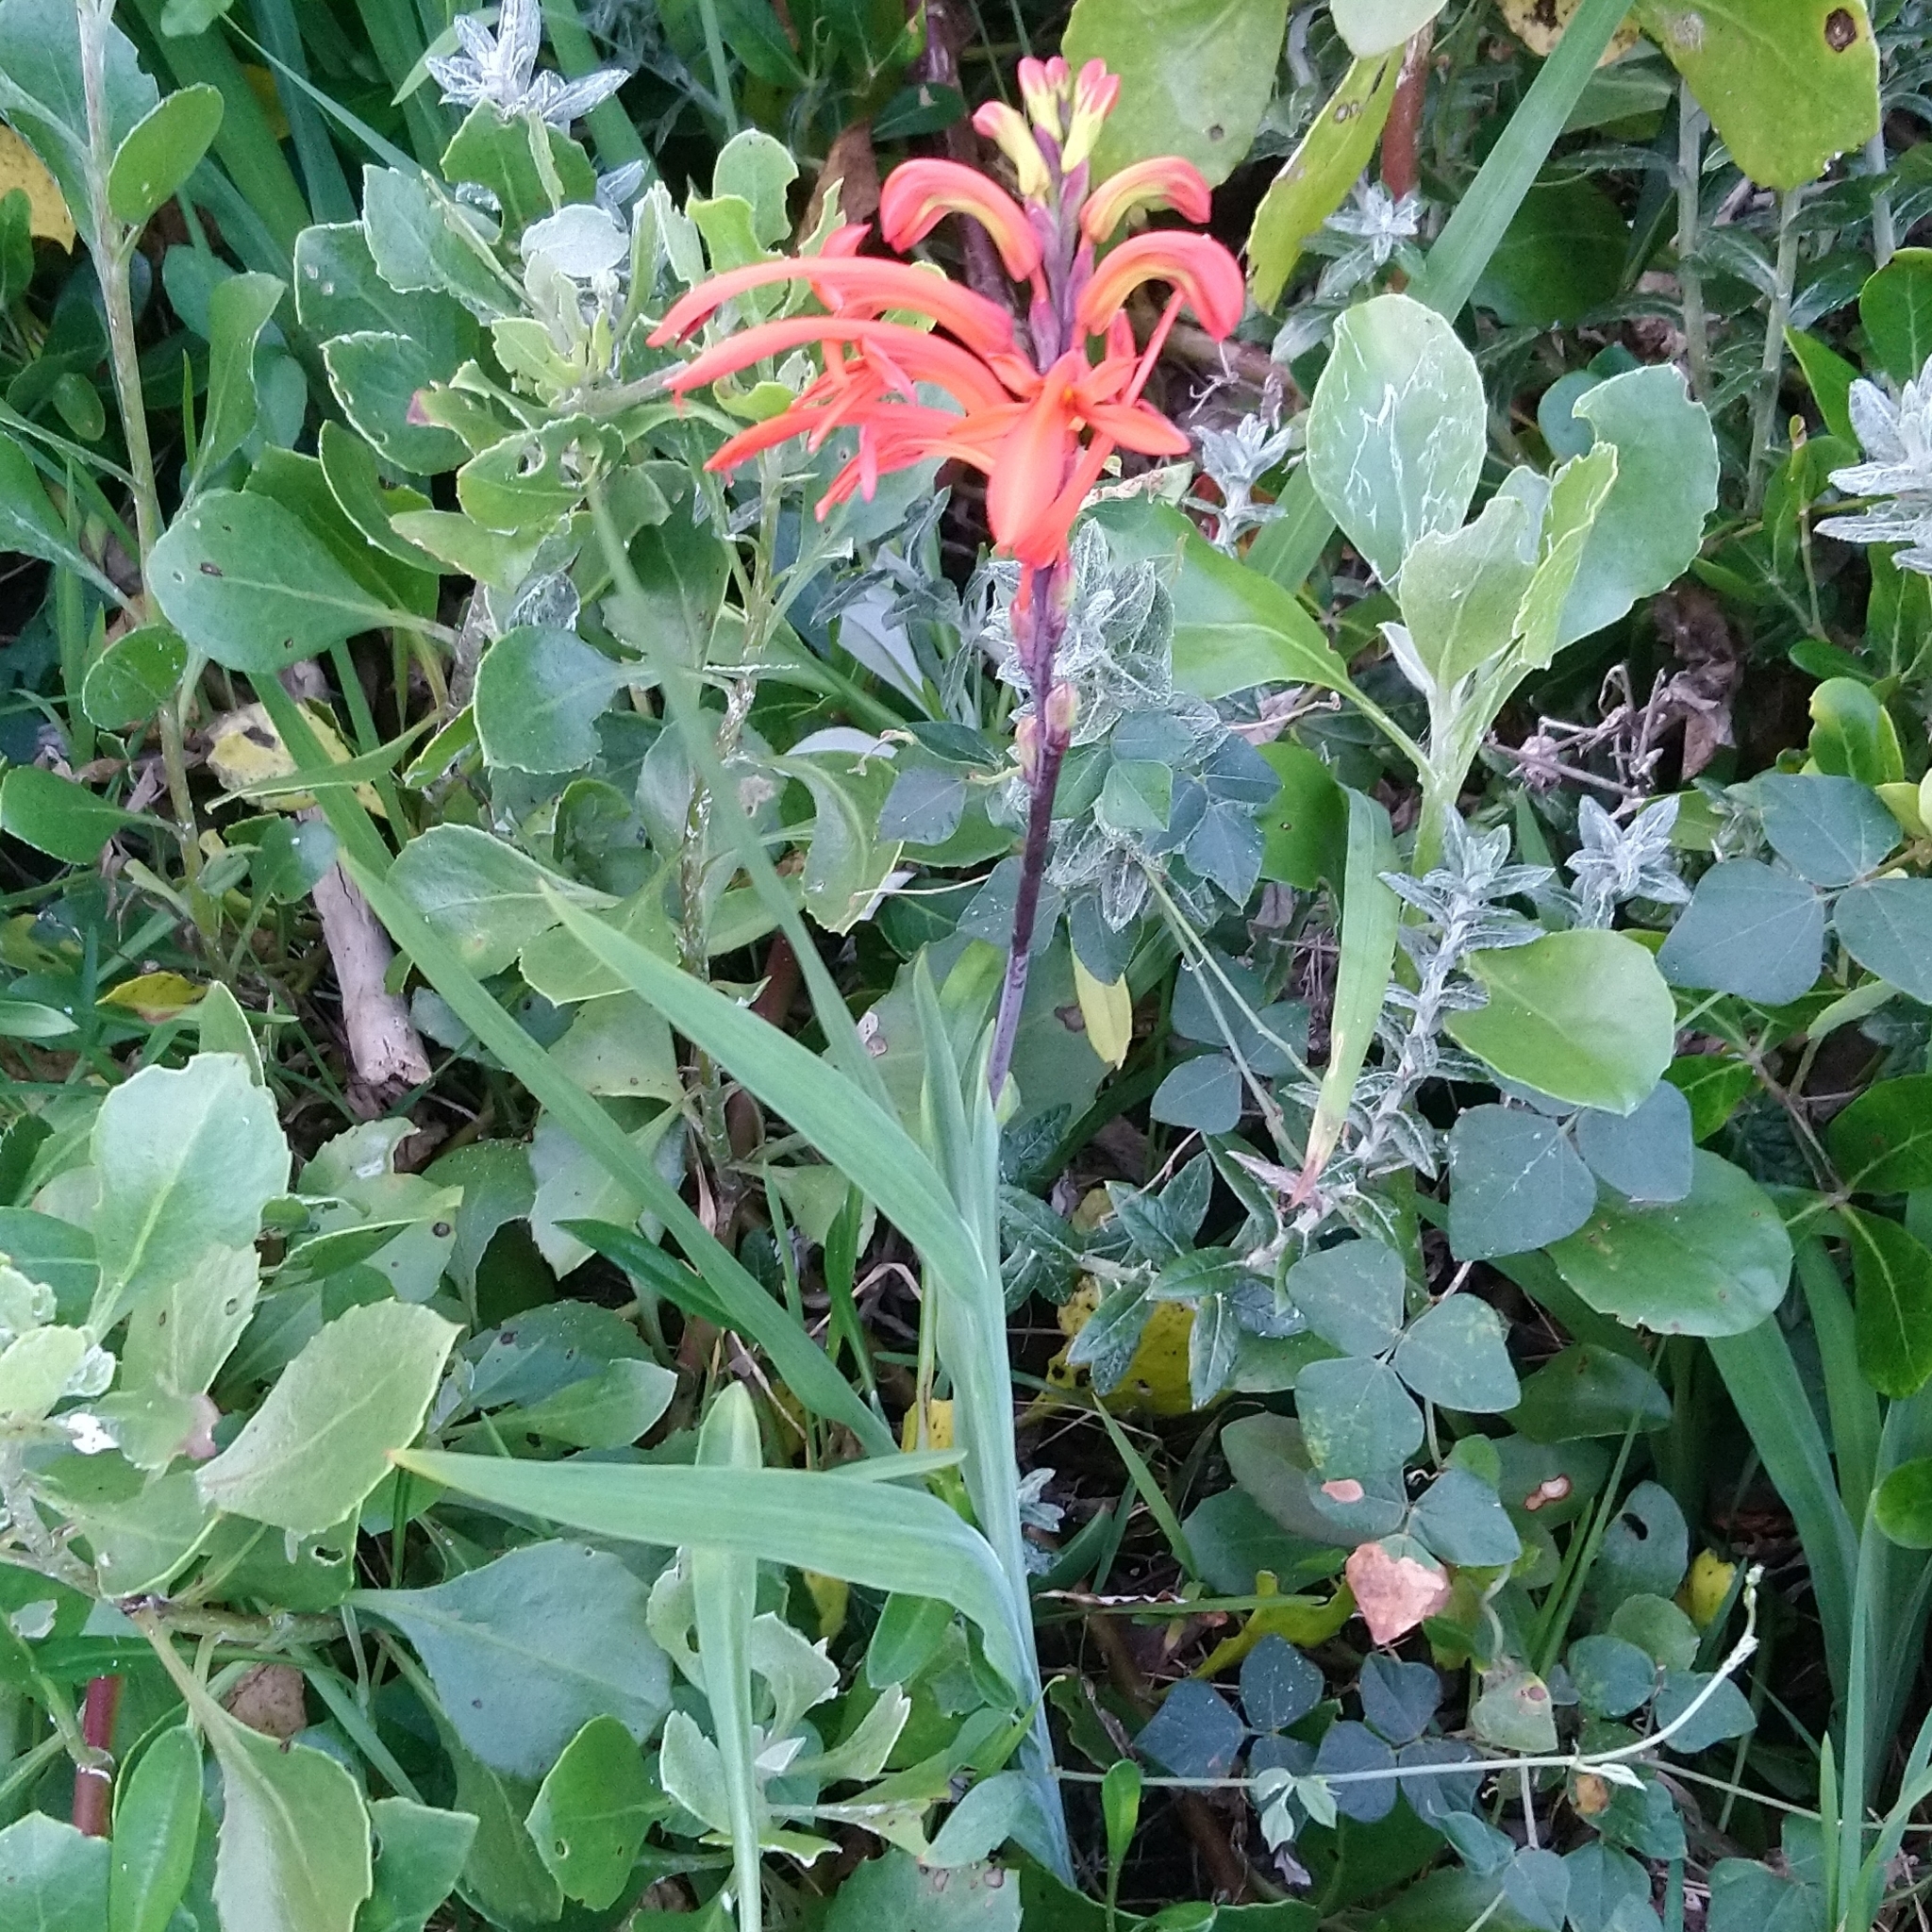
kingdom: Plantae
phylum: Tracheophyta
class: Liliopsida
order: Asparagales
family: Iridaceae
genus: Chasmanthe
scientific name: Chasmanthe aethiopica
